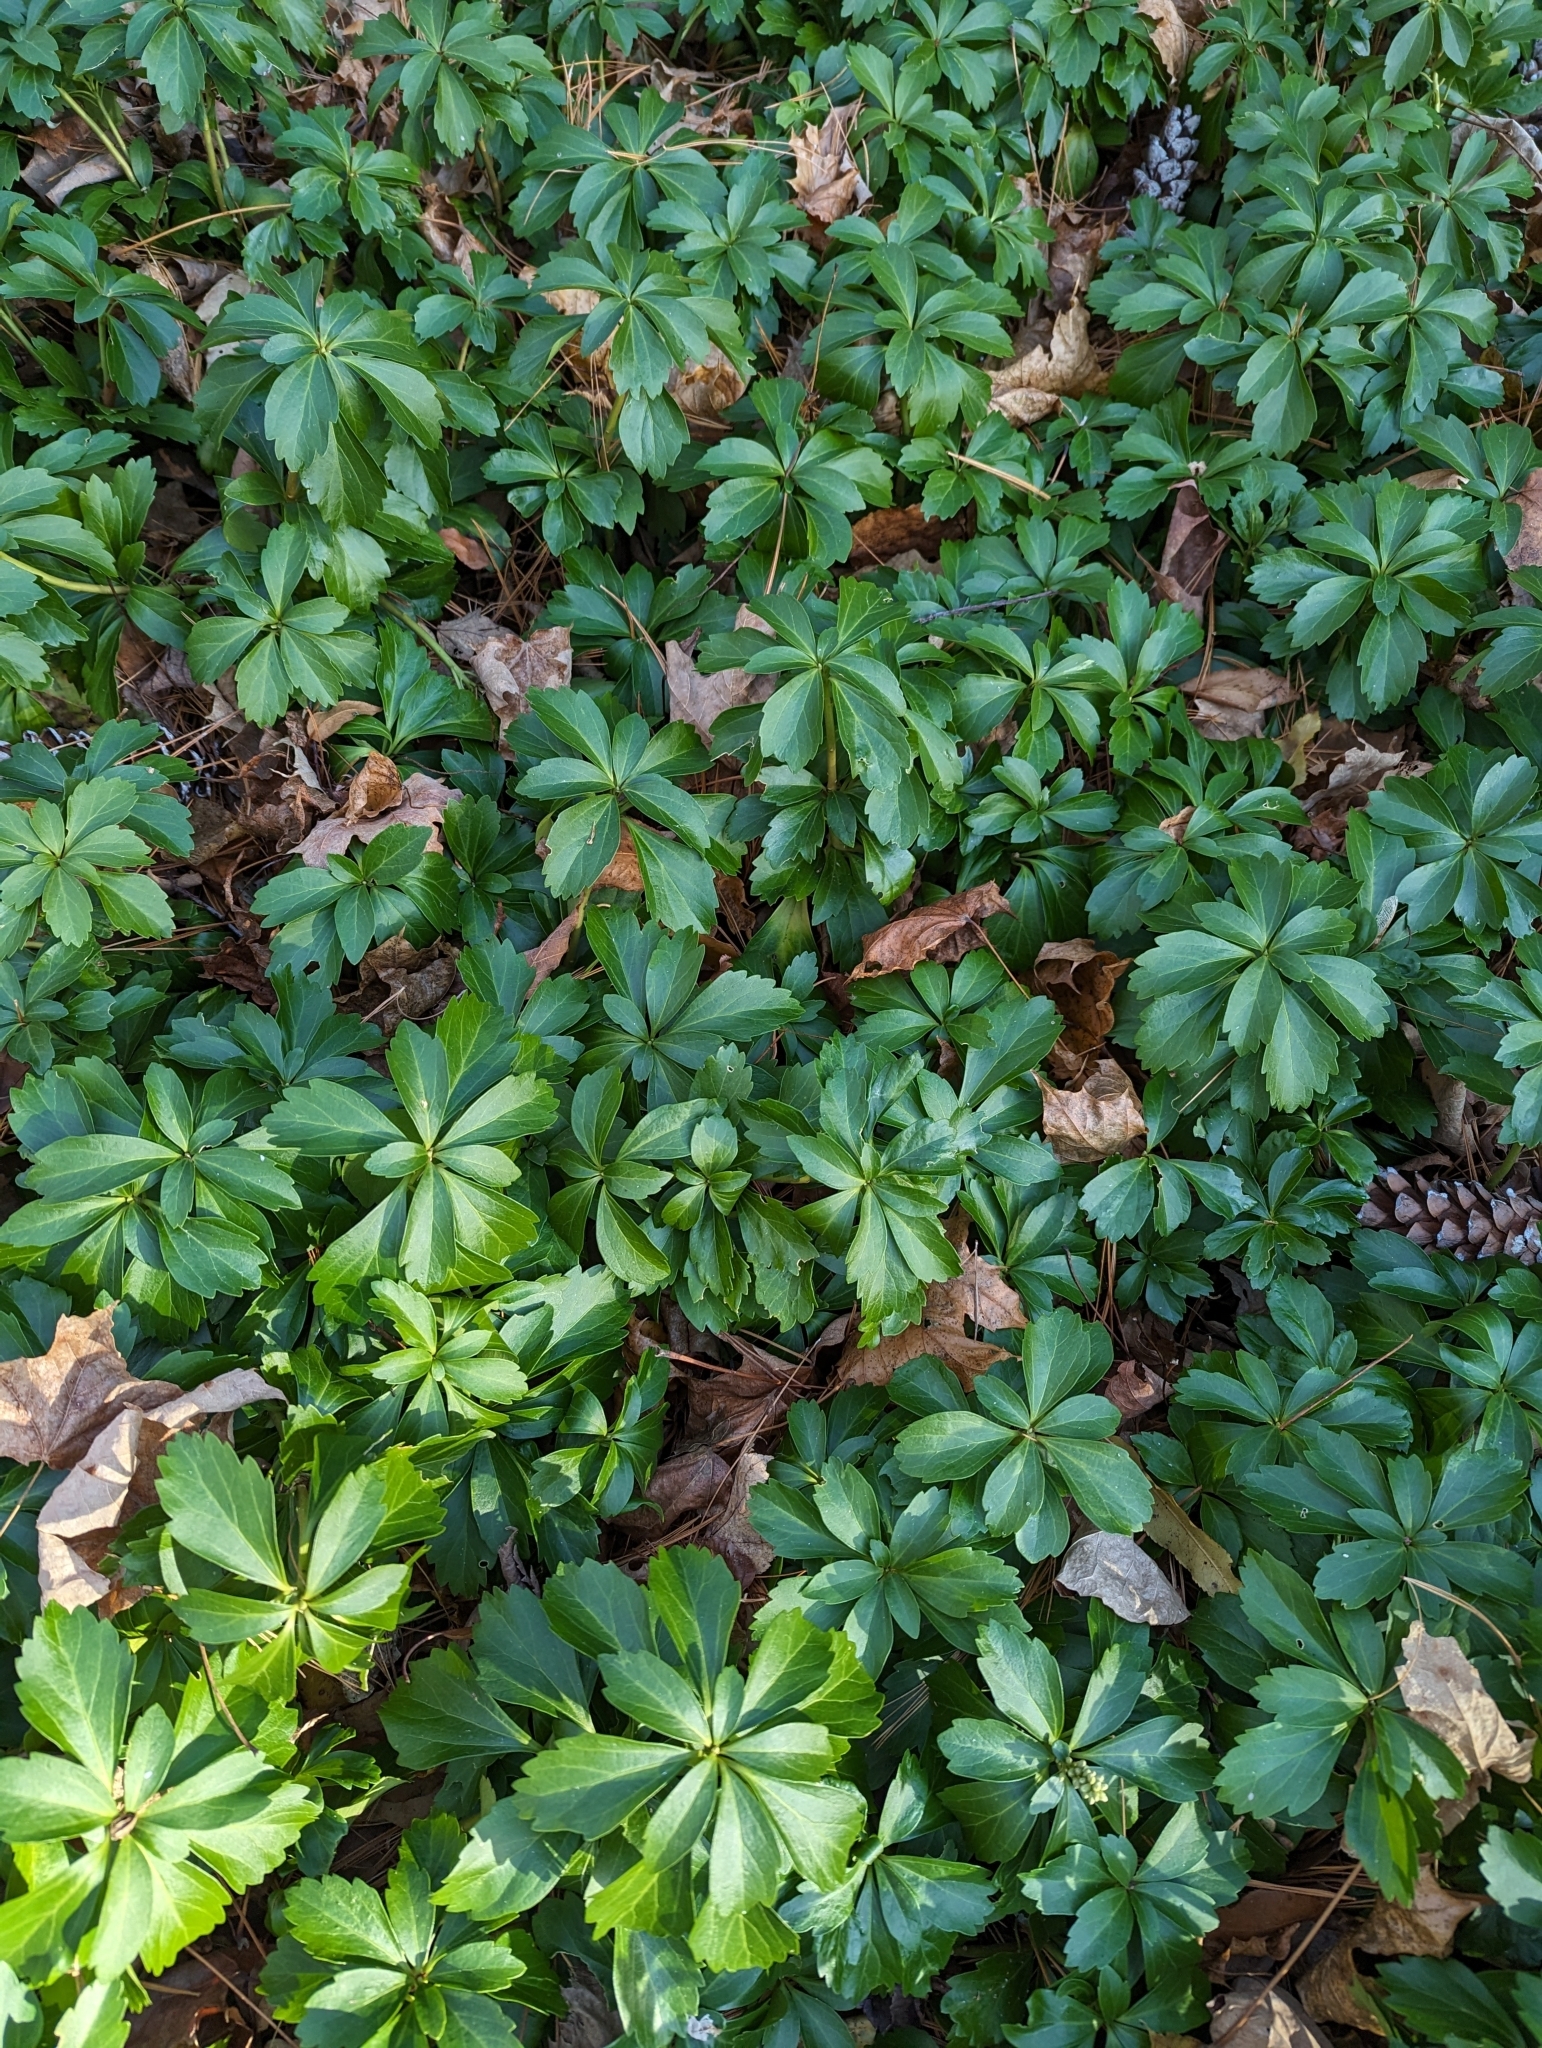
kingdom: Plantae
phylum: Tracheophyta
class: Magnoliopsida
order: Buxales
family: Buxaceae
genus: Pachysandra
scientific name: Pachysandra terminalis
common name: Japanese pachysandra
